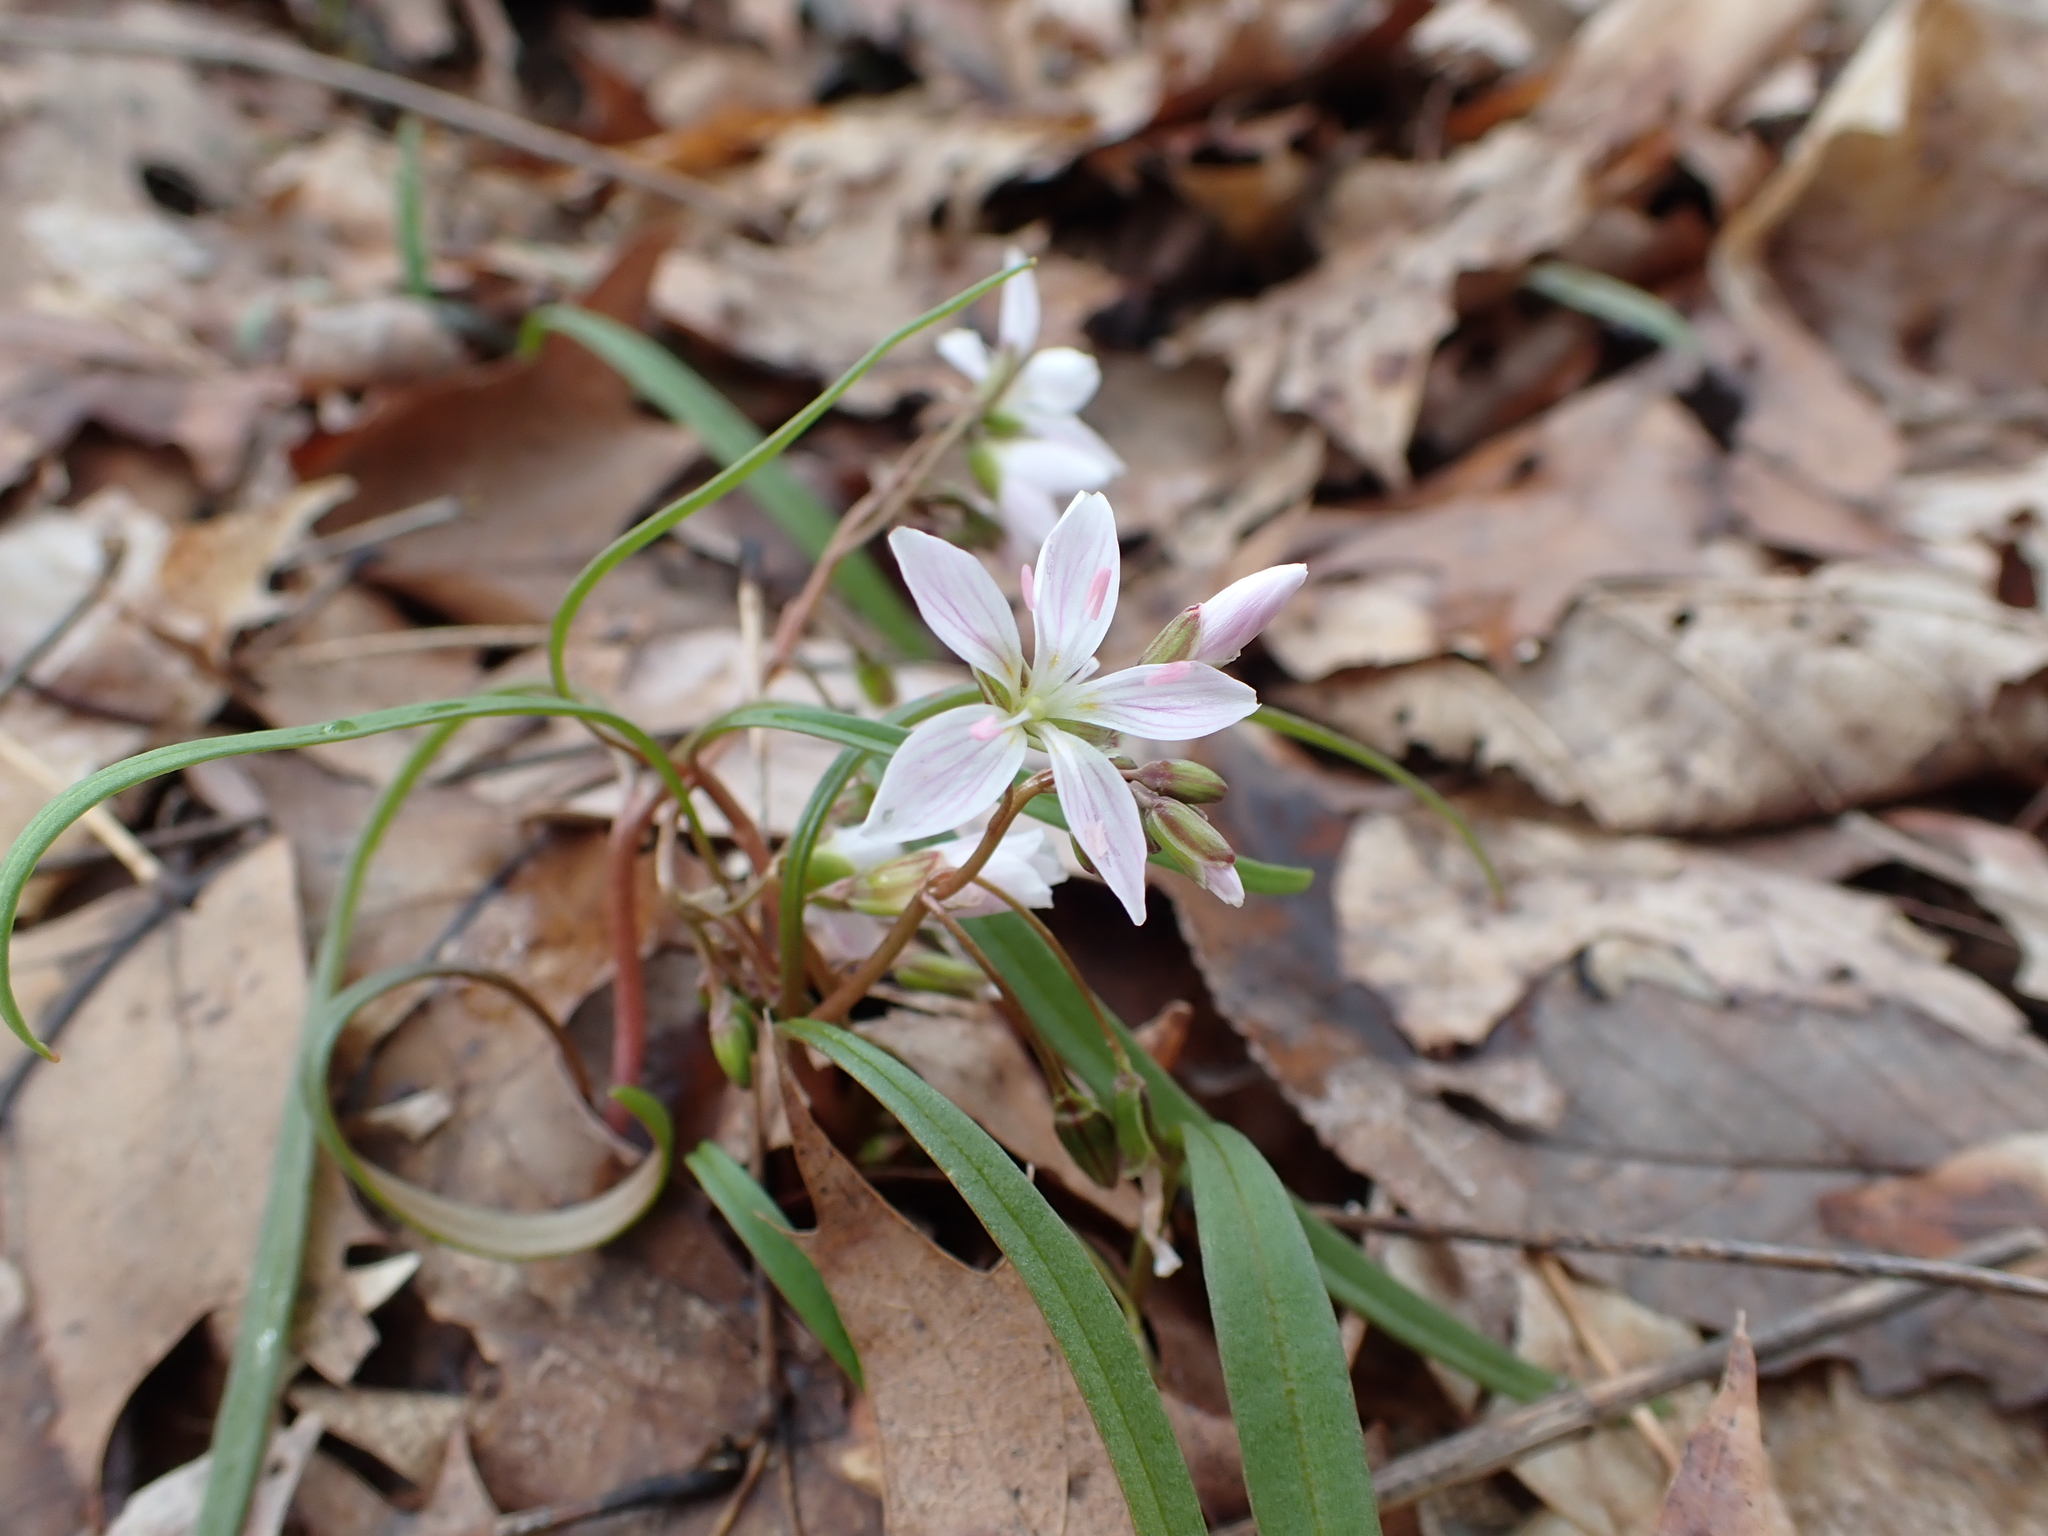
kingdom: Plantae
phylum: Tracheophyta
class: Magnoliopsida
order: Caryophyllales
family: Montiaceae
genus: Claytonia
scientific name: Claytonia virginica
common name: Virginia springbeauty
